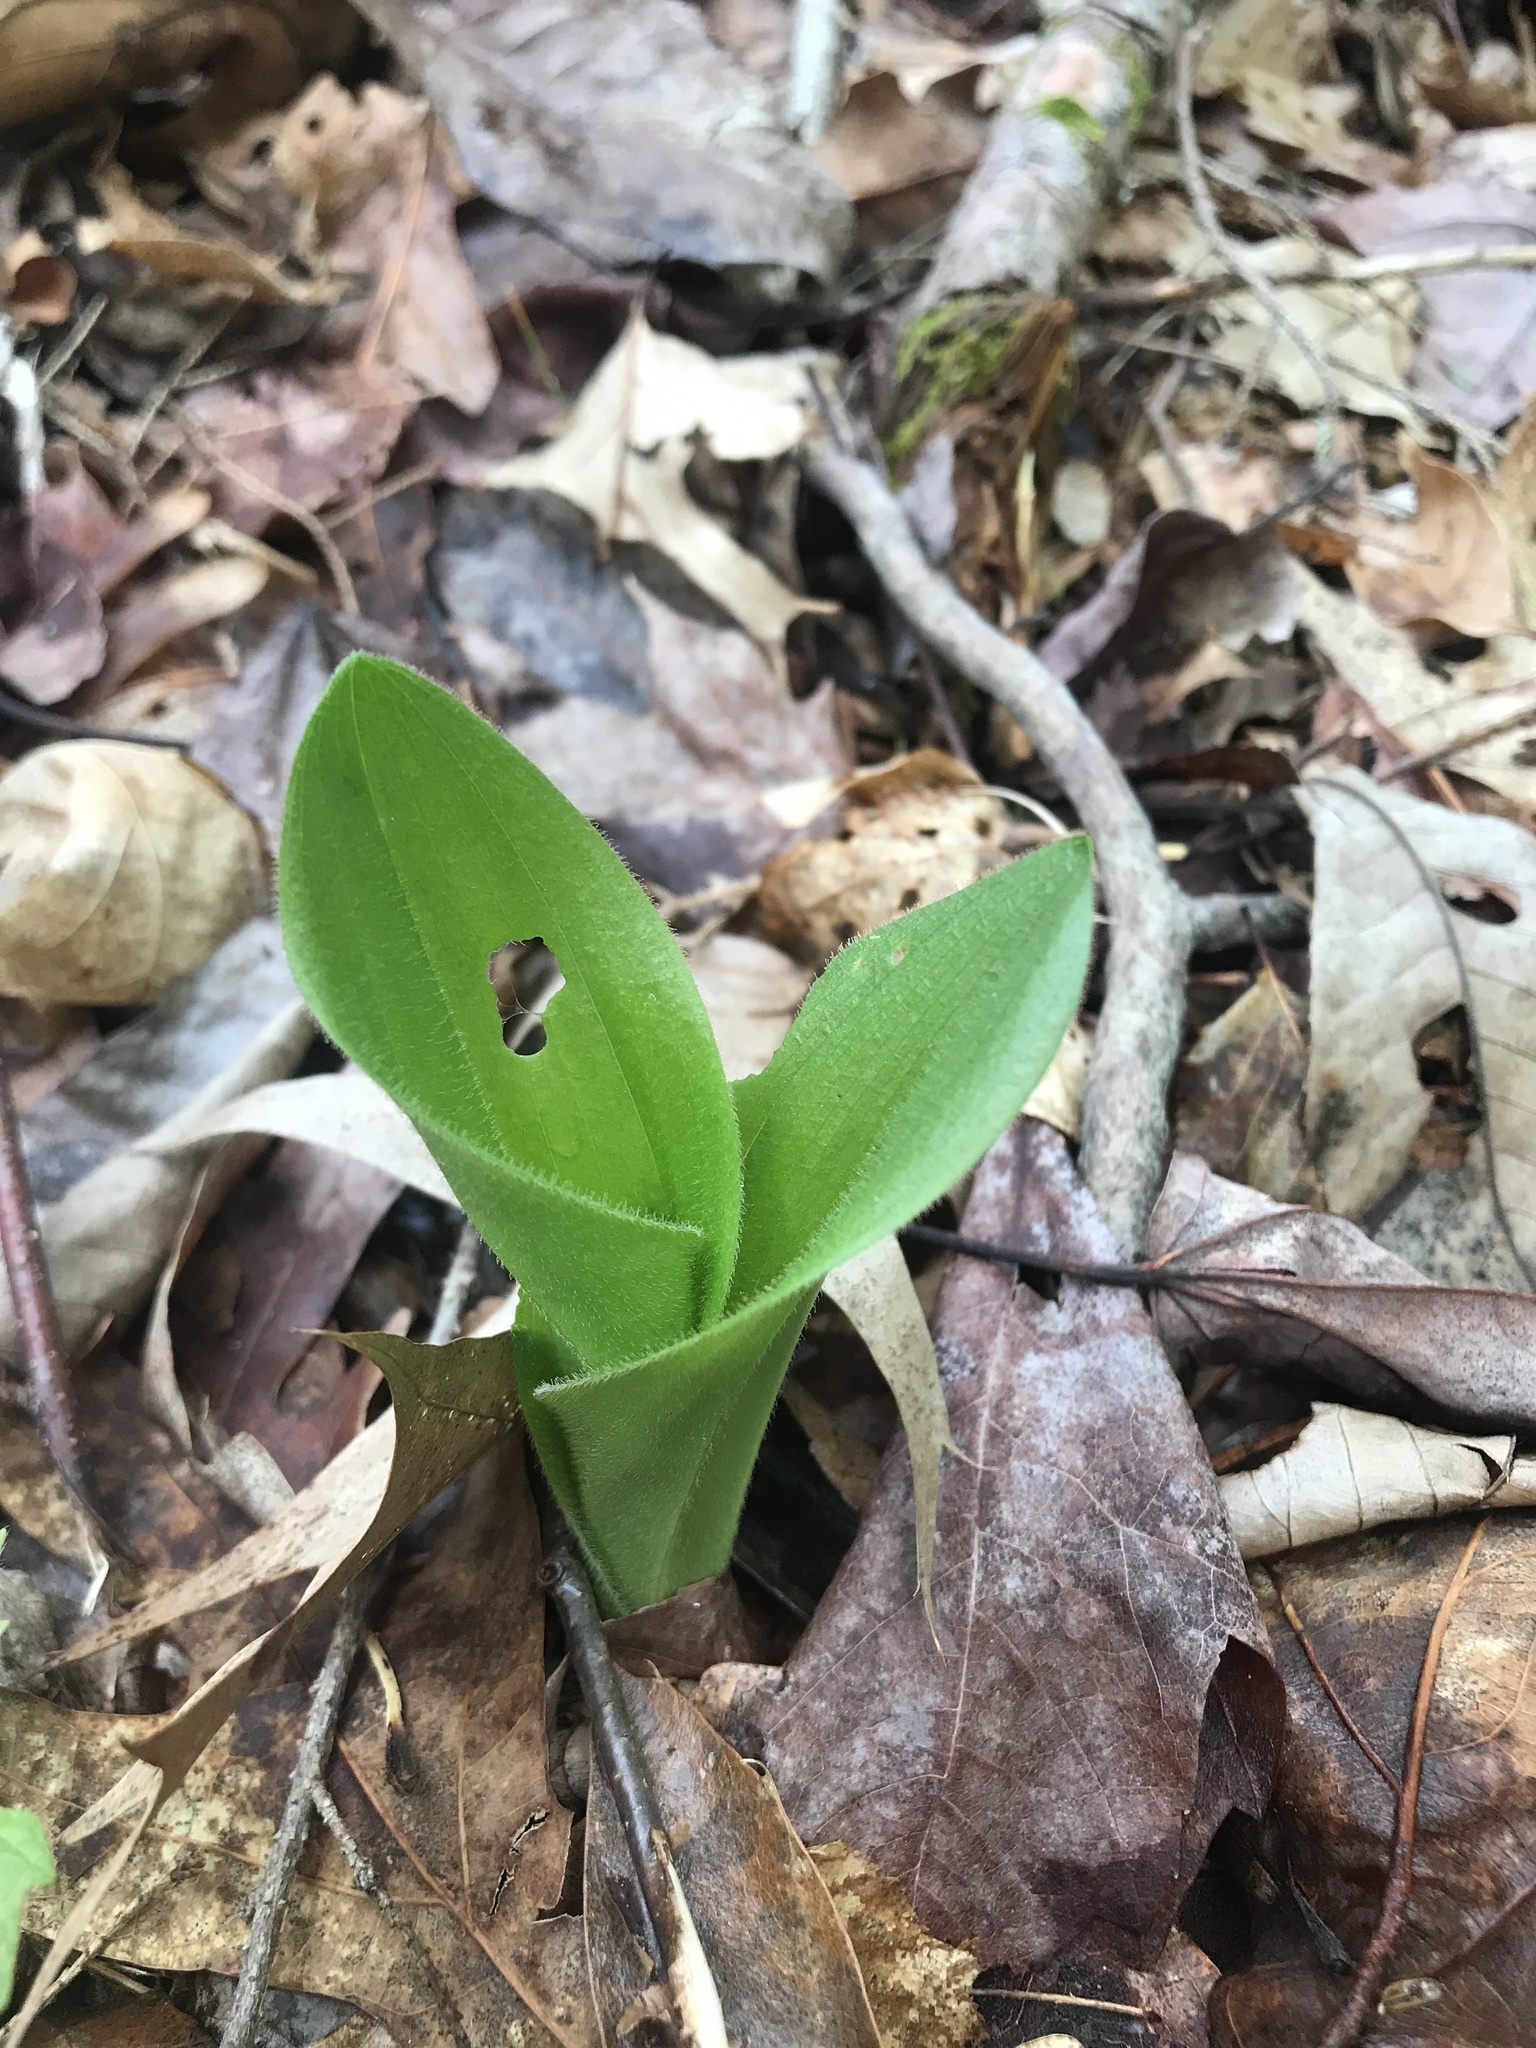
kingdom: Plantae
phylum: Tracheophyta
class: Liliopsida
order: Asparagales
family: Orchidaceae
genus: Cypripedium
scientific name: Cypripedium acaule
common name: Pink lady's-slipper
